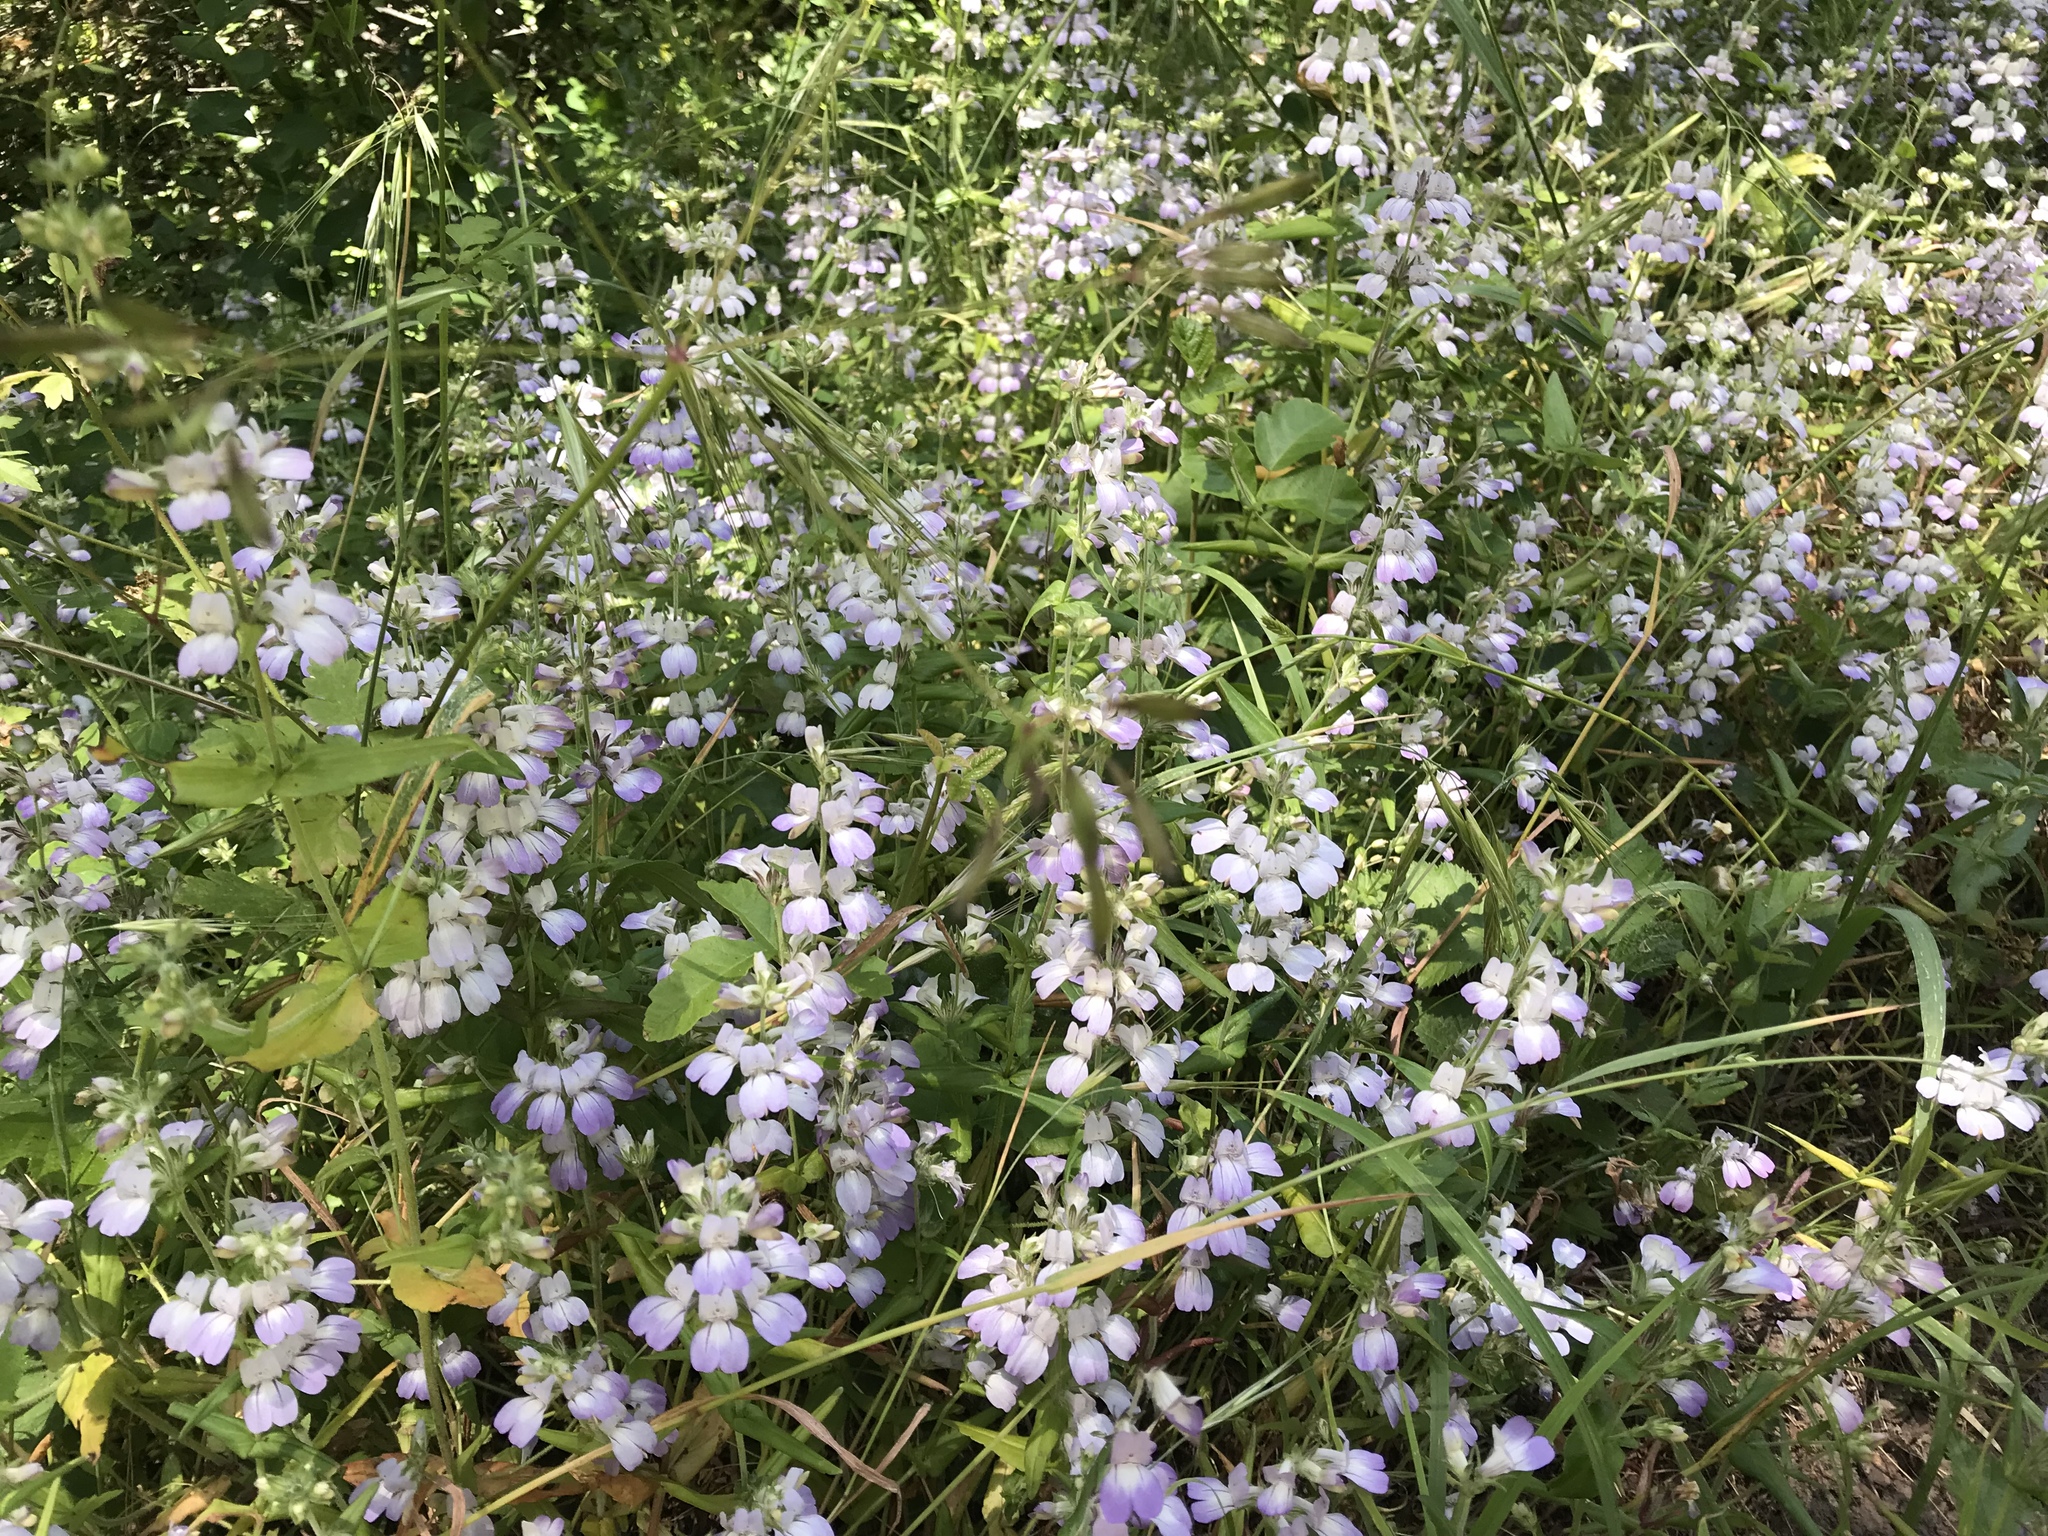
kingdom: Plantae
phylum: Tracheophyta
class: Magnoliopsida
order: Lamiales
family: Plantaginaceae
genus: Collinsia
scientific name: Collinsia heterophylla
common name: Chinese-houses
